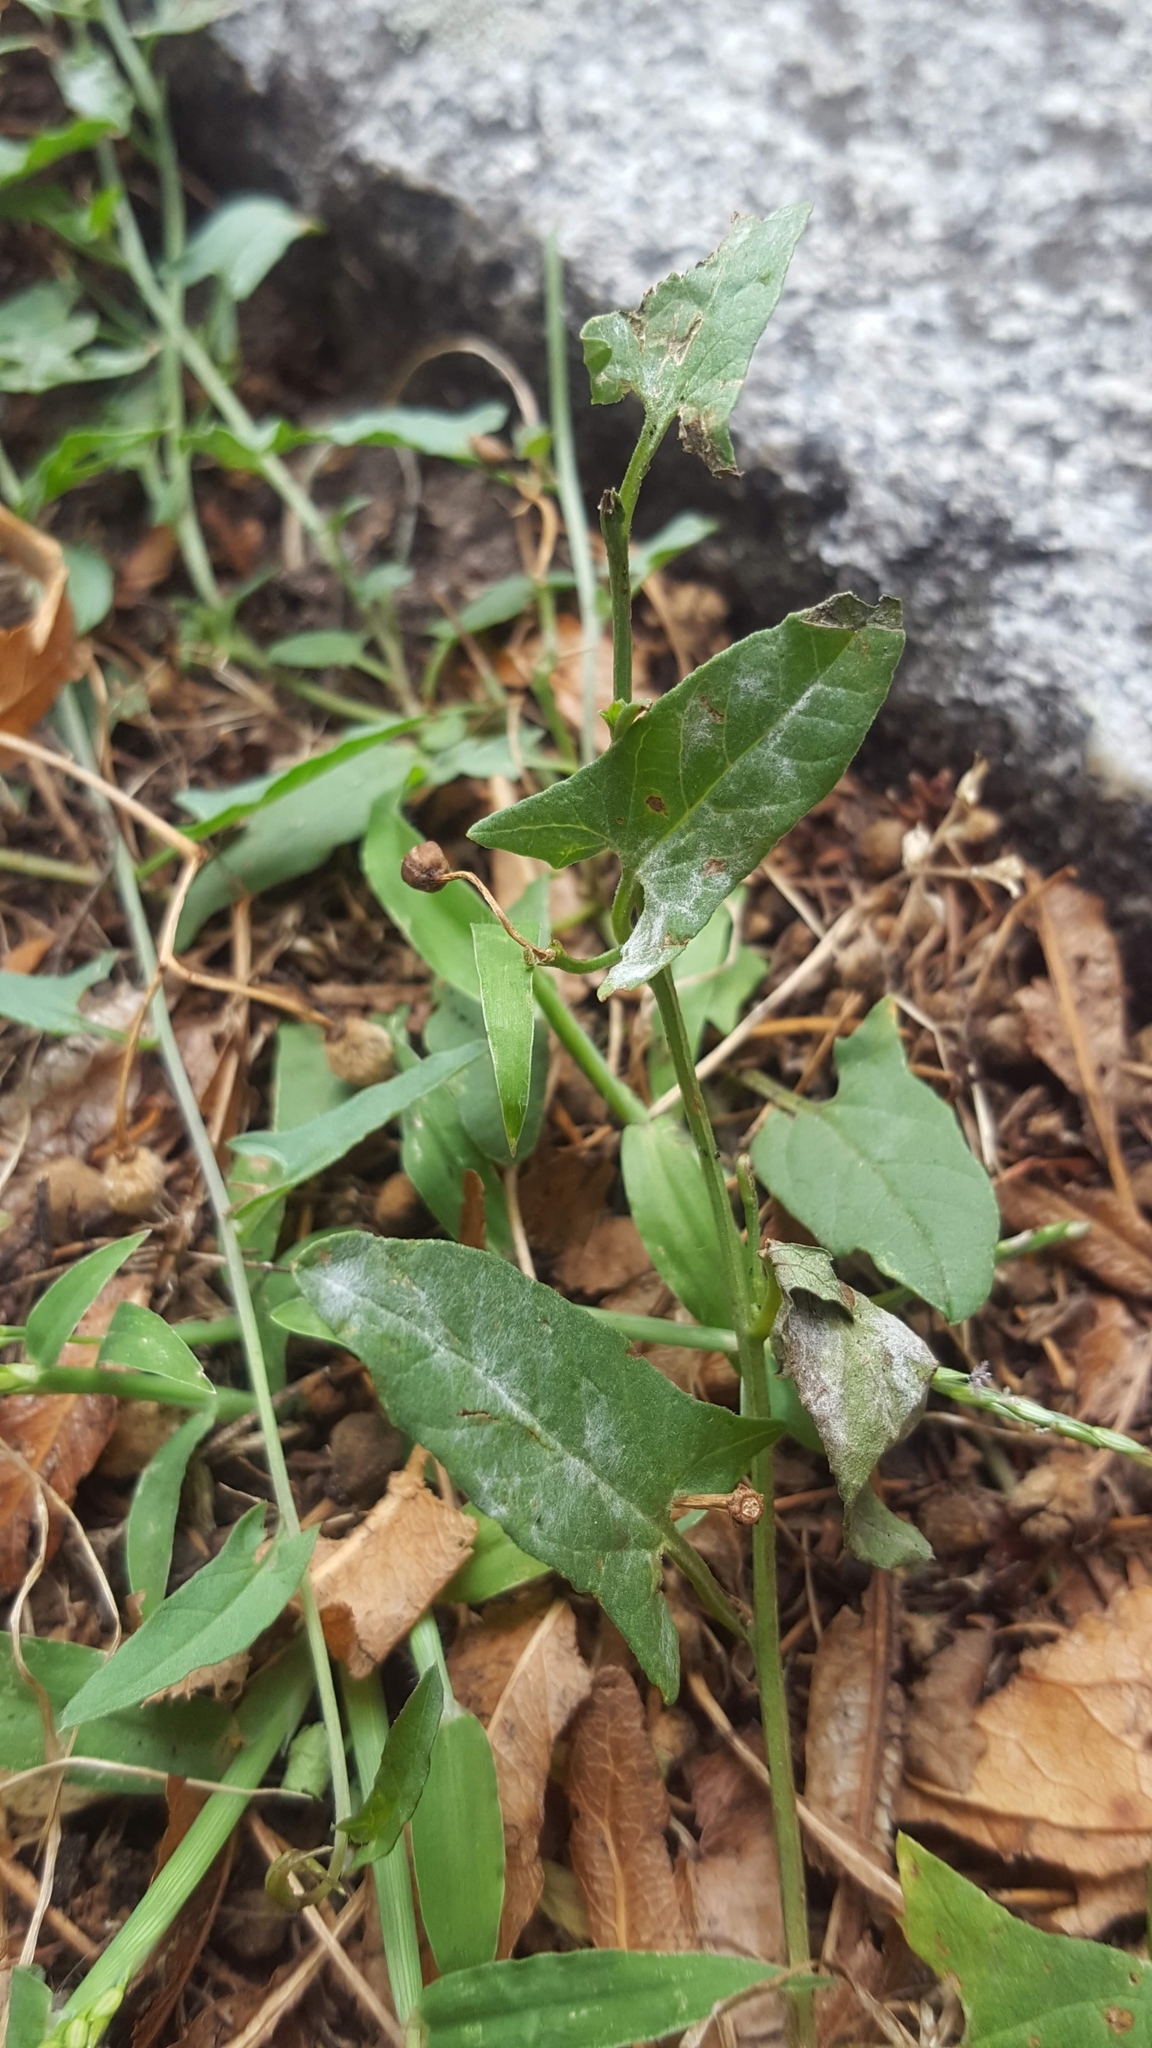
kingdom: Plantae
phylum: Tracheophyta
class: Magnoliopsida
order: Solanales
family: Convolvulaceae
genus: Convolvulus
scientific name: Convolvulus arvensis
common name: Field bindweed
